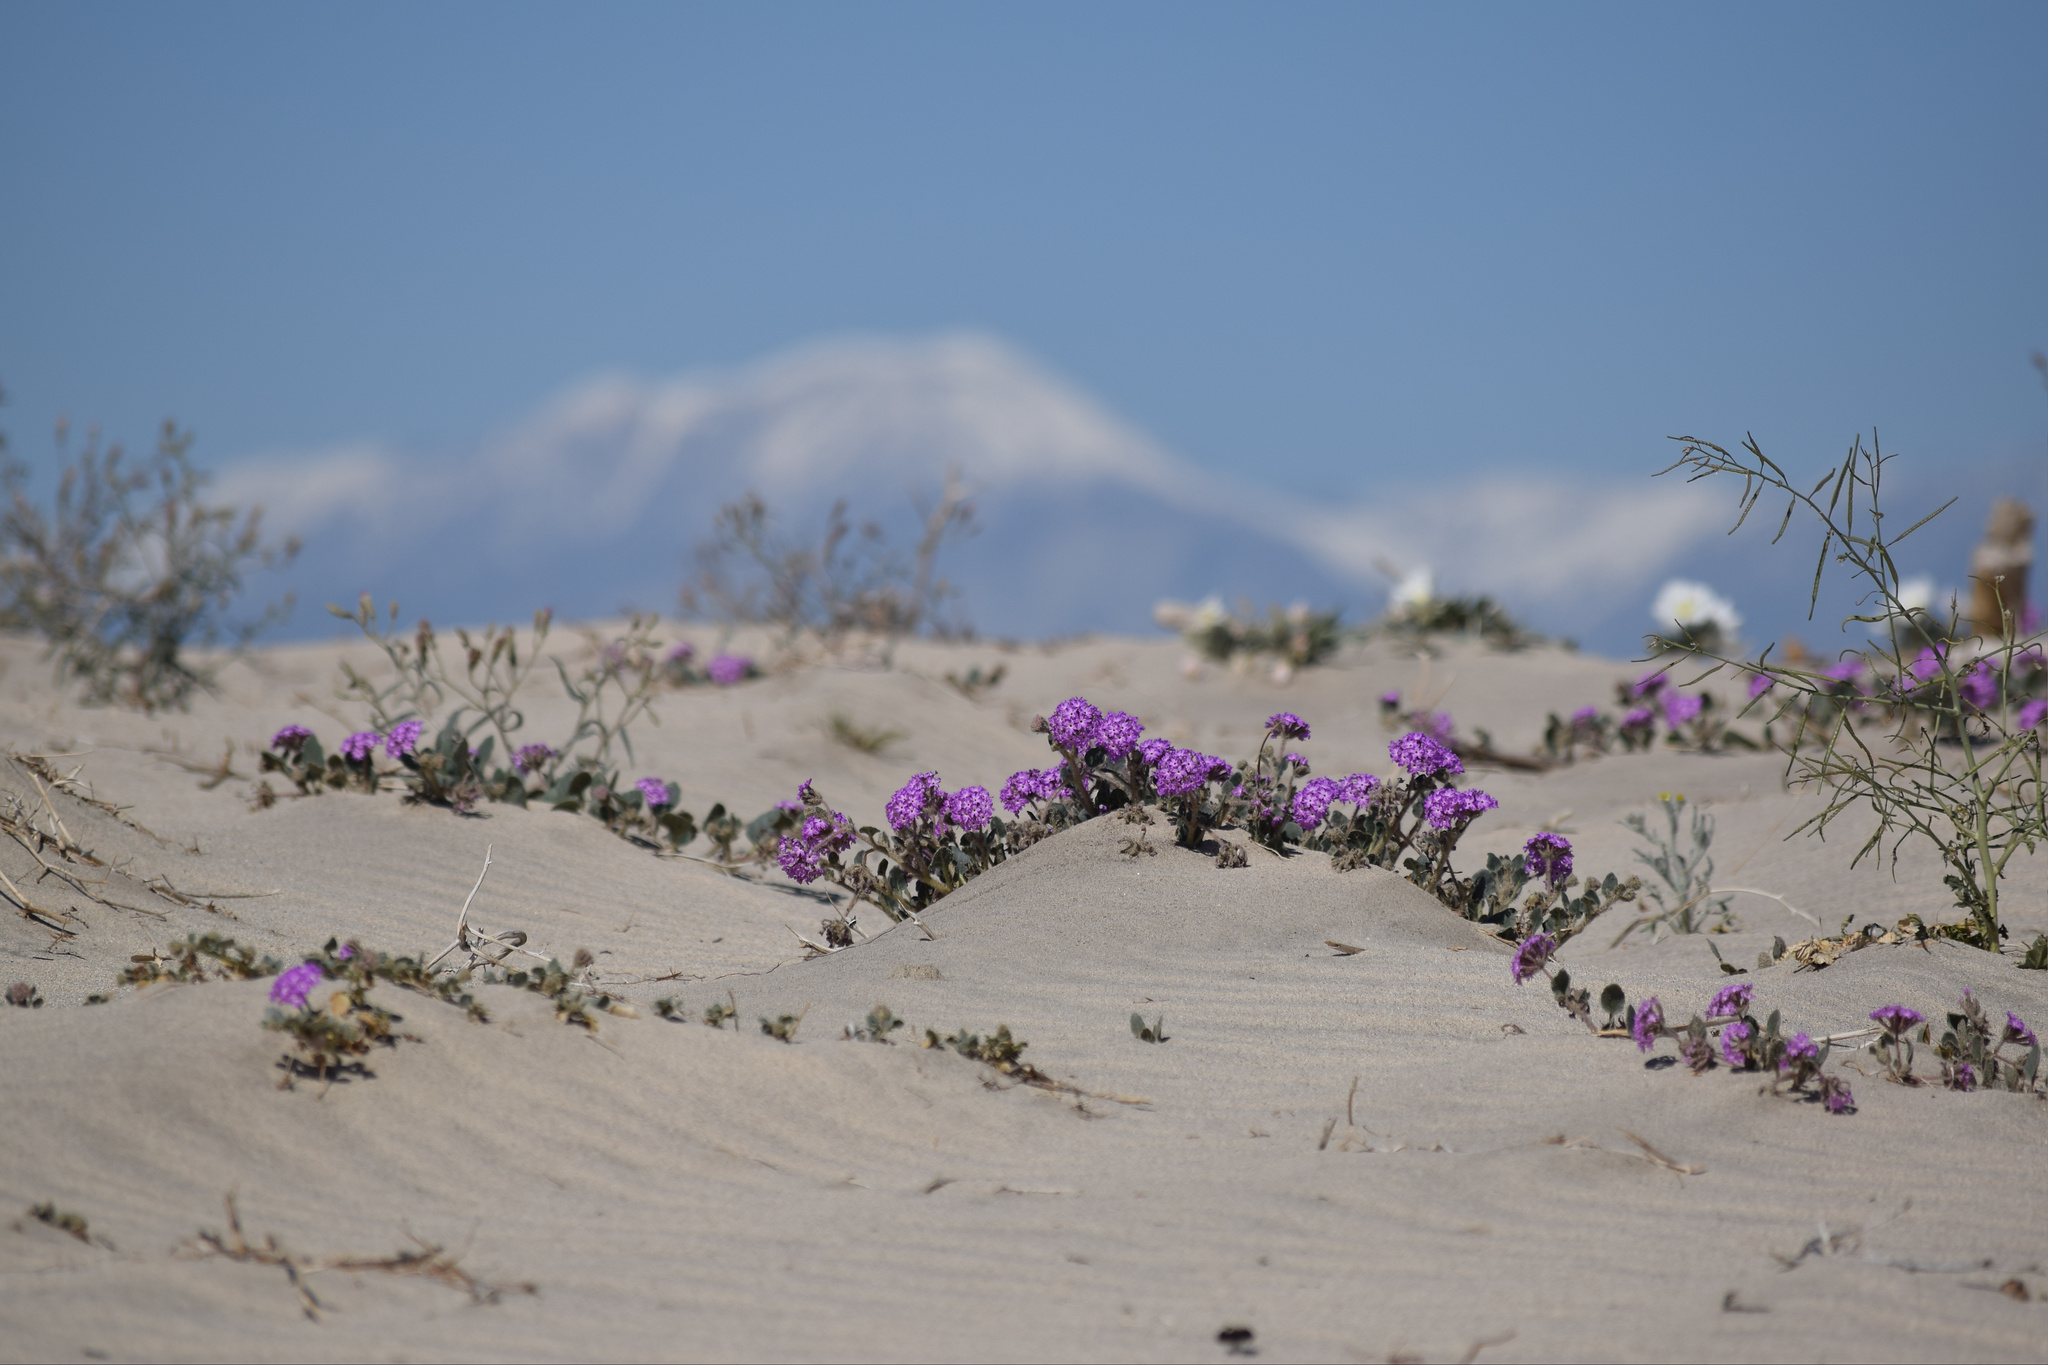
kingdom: Plantae
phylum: Tracheophyta
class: Magnoliopsida
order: Caryophyllales
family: Nyctaginaceae
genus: Abronia
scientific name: Abronia villosa
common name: Desert sand-verbena
